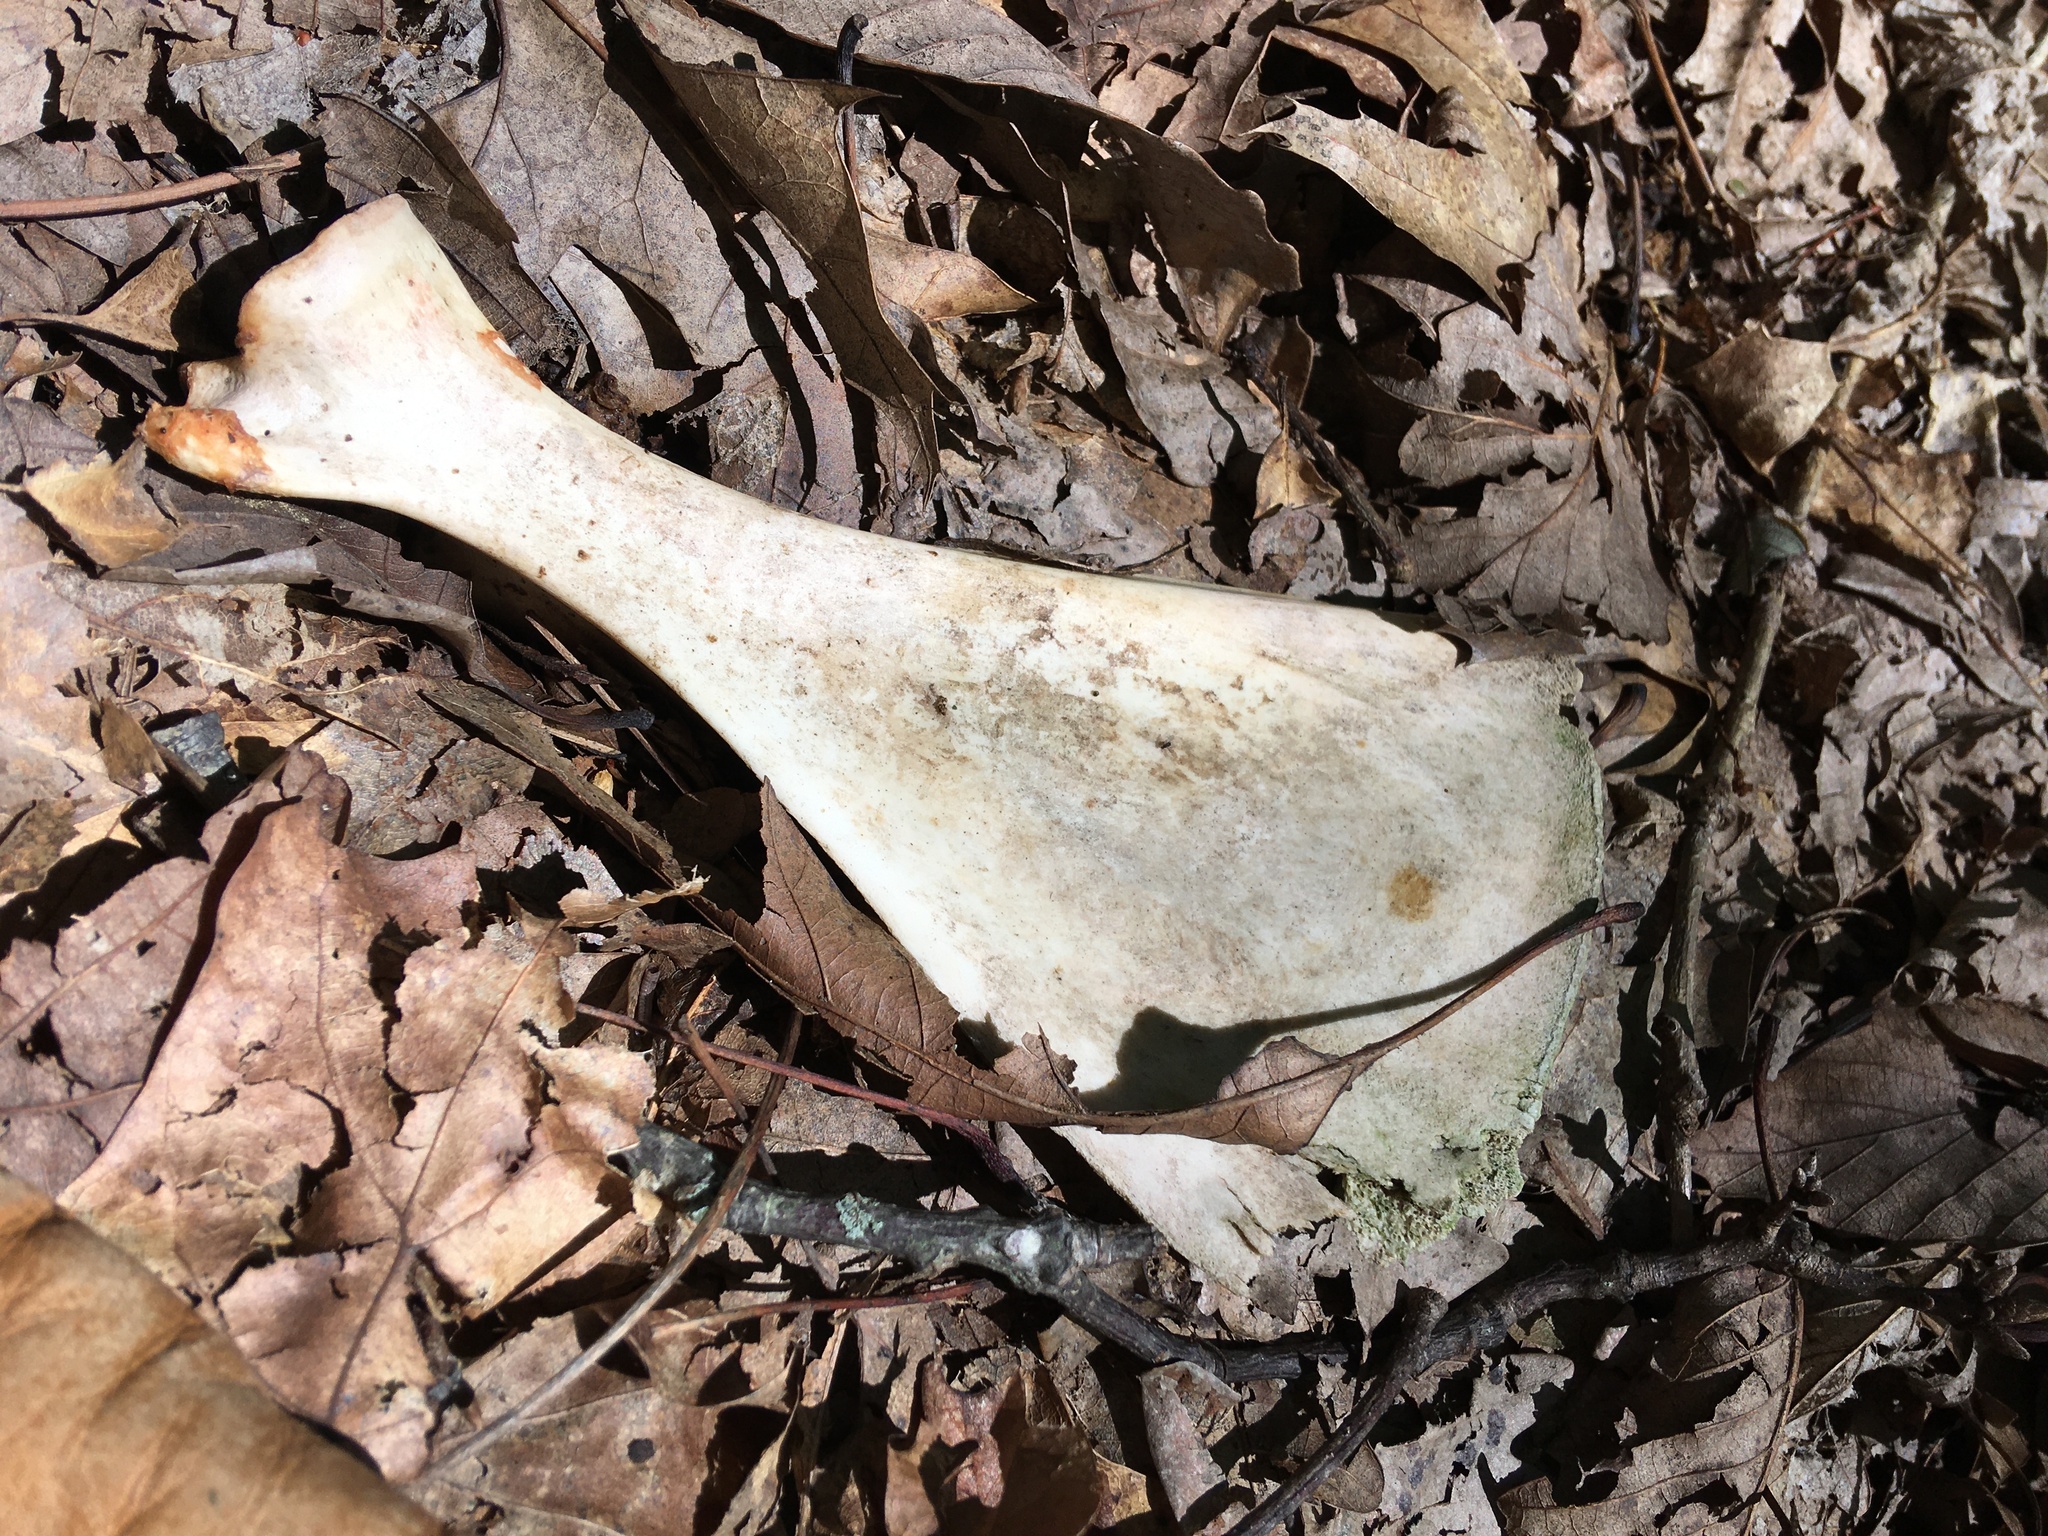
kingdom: Animalia
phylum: Chordata
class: Mammalia
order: Artiodactyla
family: Cervidae
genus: Odocoileus
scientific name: Odocoileus virginianus
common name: White-tailed deer
